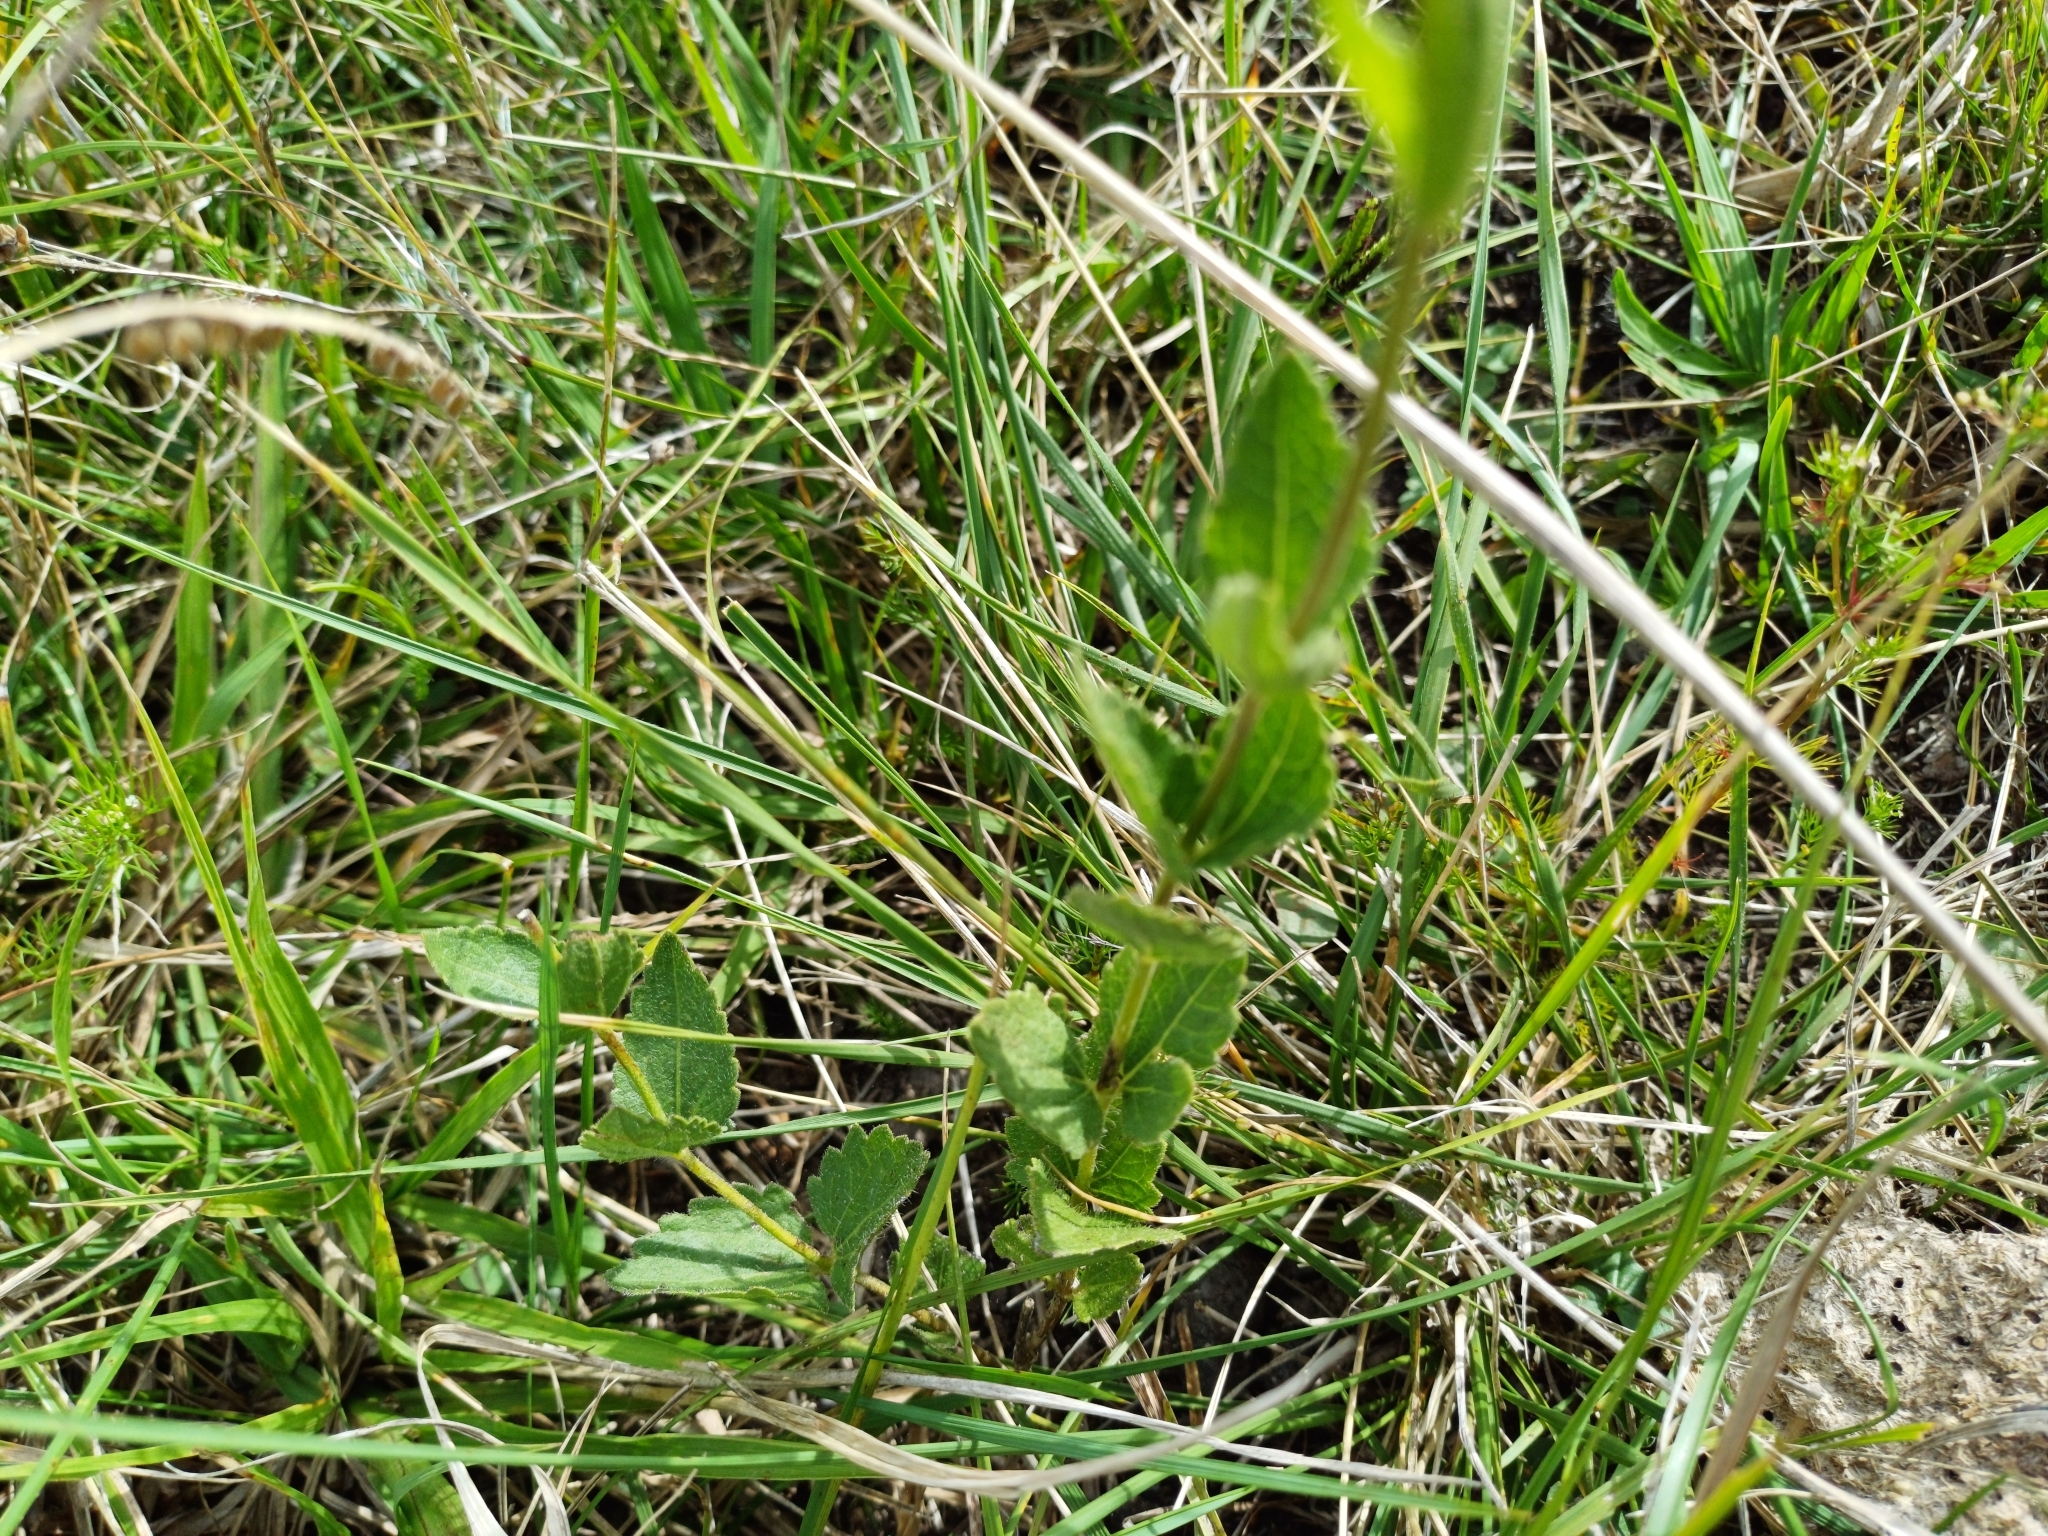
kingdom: Plantae
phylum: Tracheophyta
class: Magnoliopsida
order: Asterales
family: Asteraceae
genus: Chromolaena
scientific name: Chromolaena hirsuta
